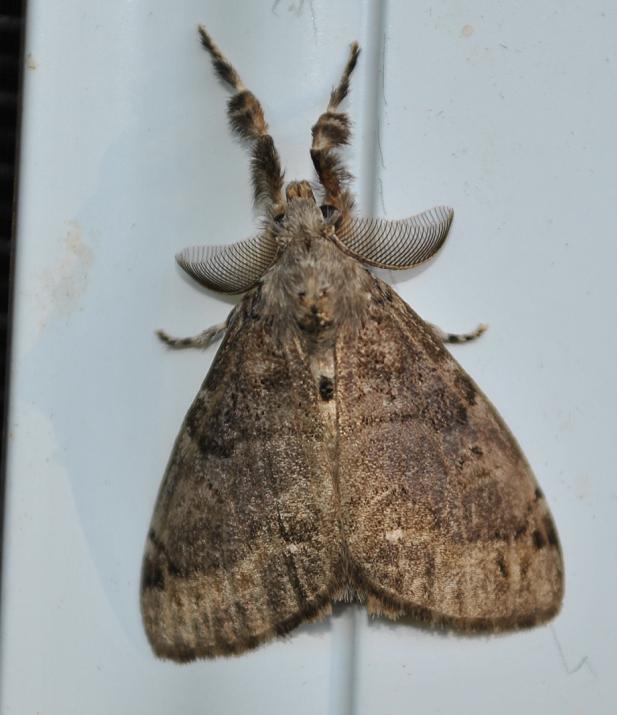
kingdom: Animalia
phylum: Arthropoda
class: Insecta
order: Lepidoptera
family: Erebidae
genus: Orgyia
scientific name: Orgyia leucostigma
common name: White-marked tussock moth
